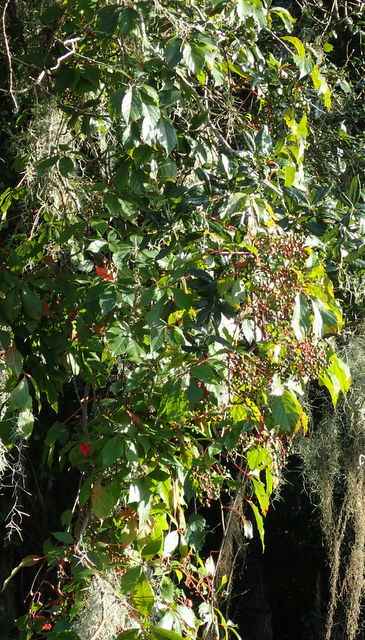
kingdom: Plantae
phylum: Tracheophyta
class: Magnoliopsida
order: Vitales
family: Vitaceae
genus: Parthenocissus
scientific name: Parthenocissus quinquefolia
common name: Virginia-creeper
